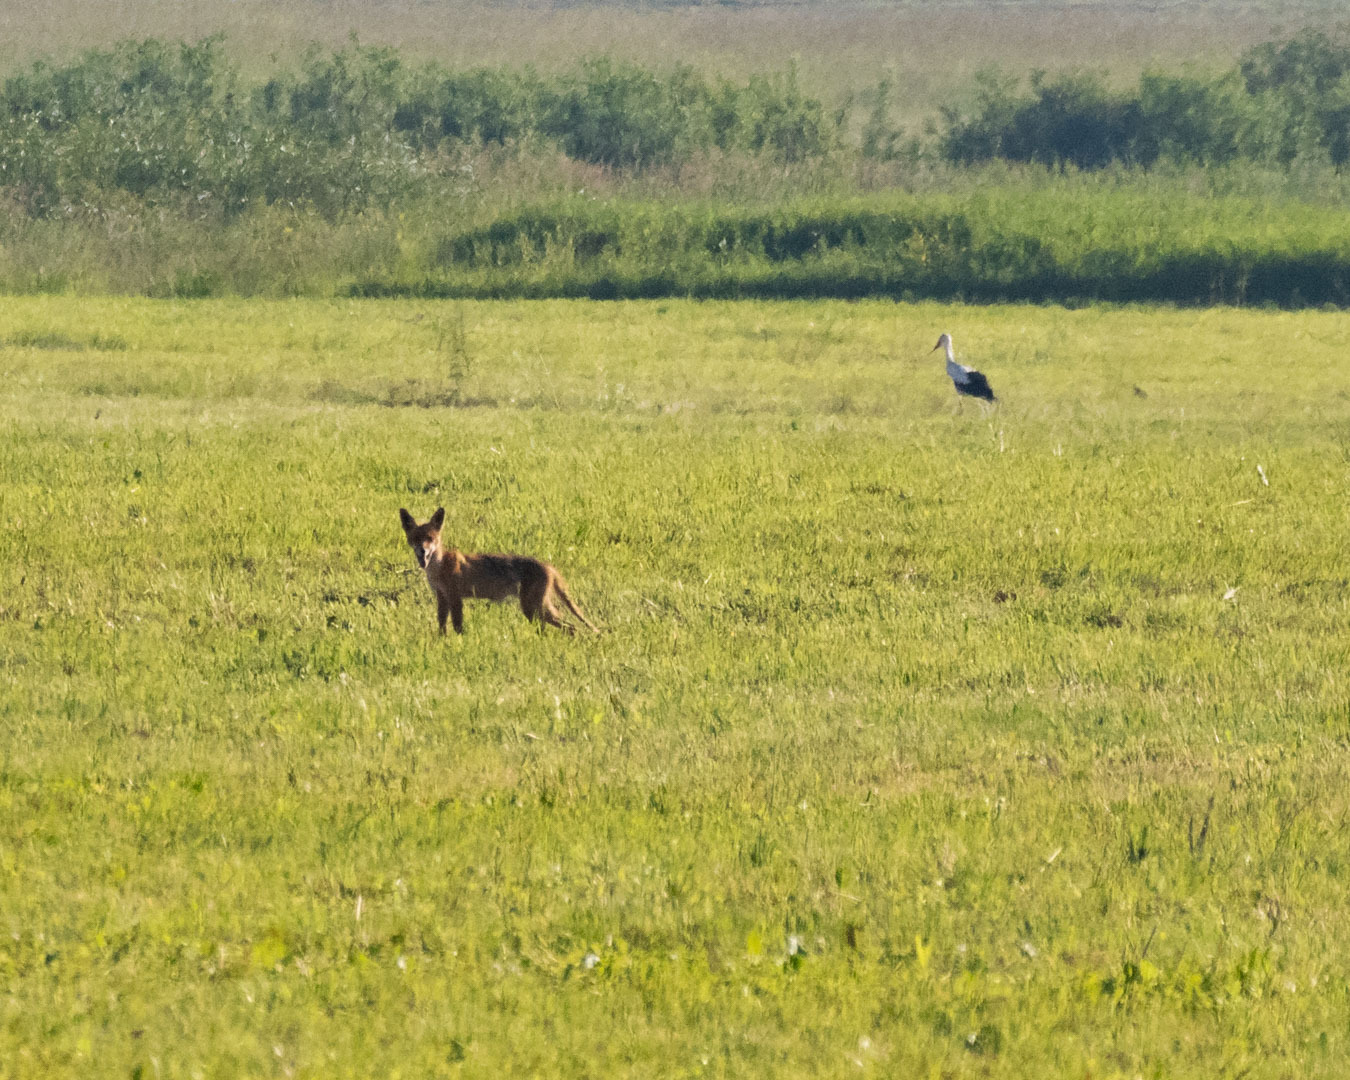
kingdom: Animalia
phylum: Chordata
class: Mammalia
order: Carnivora
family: Canidae
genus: Vulpes
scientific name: Vulpes vulpes
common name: Red fox
